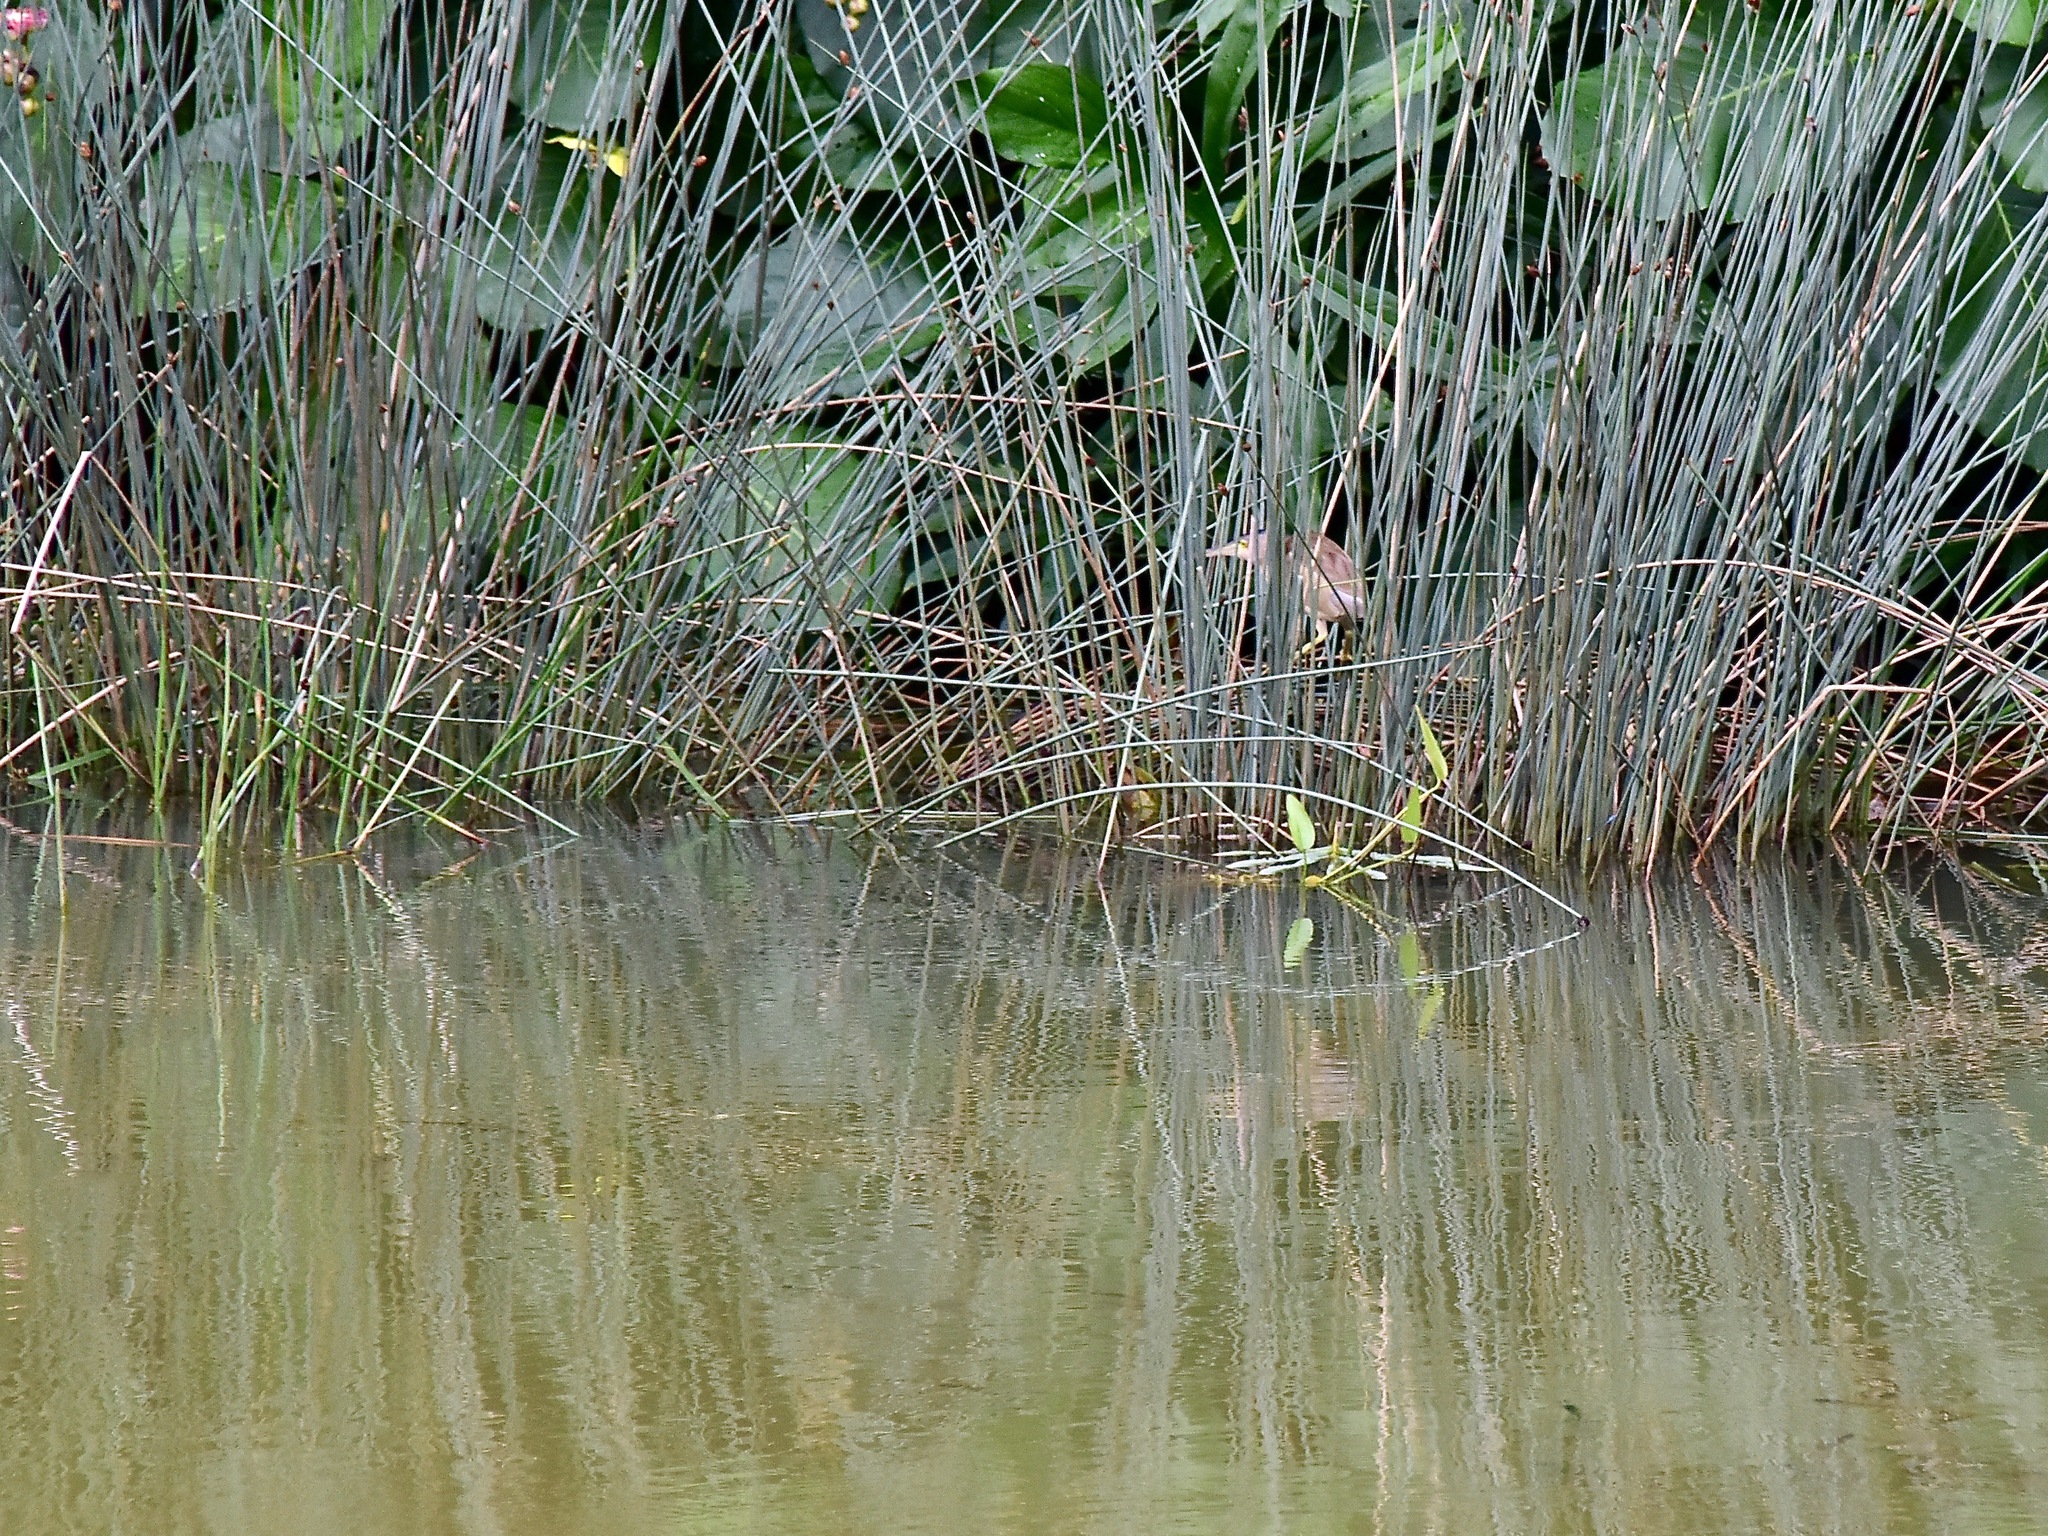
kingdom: Animalia
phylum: Chordata
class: Aves
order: Pelecaniformes
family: Ardeidae
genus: Ixobrychus
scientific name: Ixobrychus sinensis
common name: Yellow bittern
